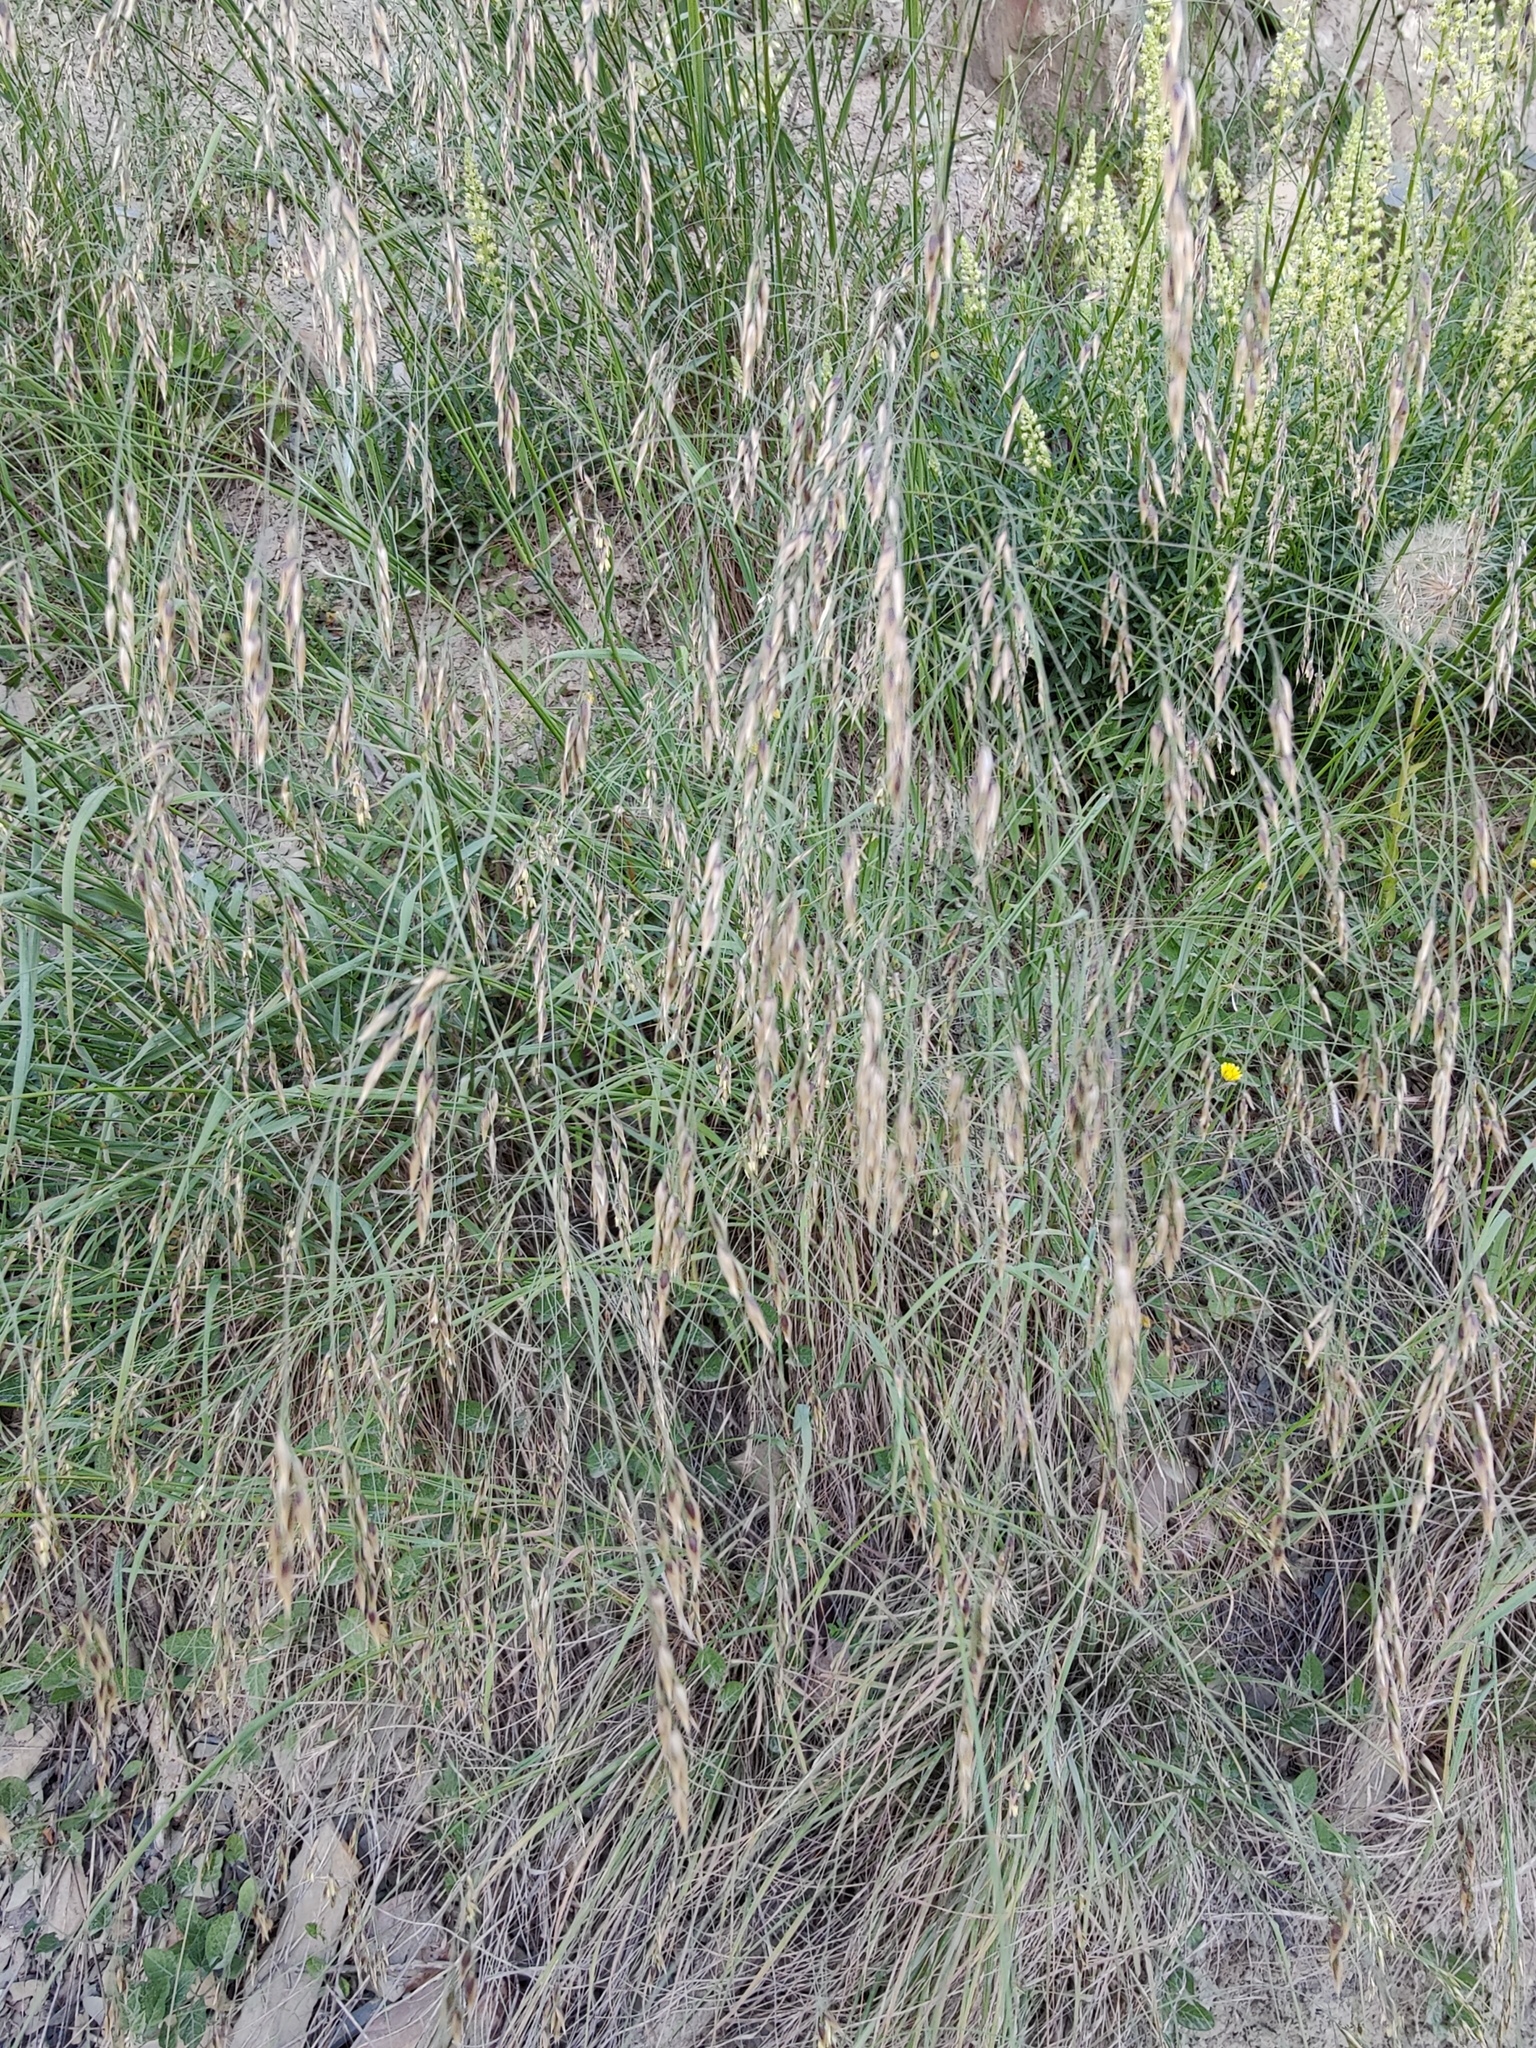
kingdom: Plantae
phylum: Tracheophyta
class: Liliopsida
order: Poales
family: Poaceae
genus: Piptatherum
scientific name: Piptatherum holciforme
